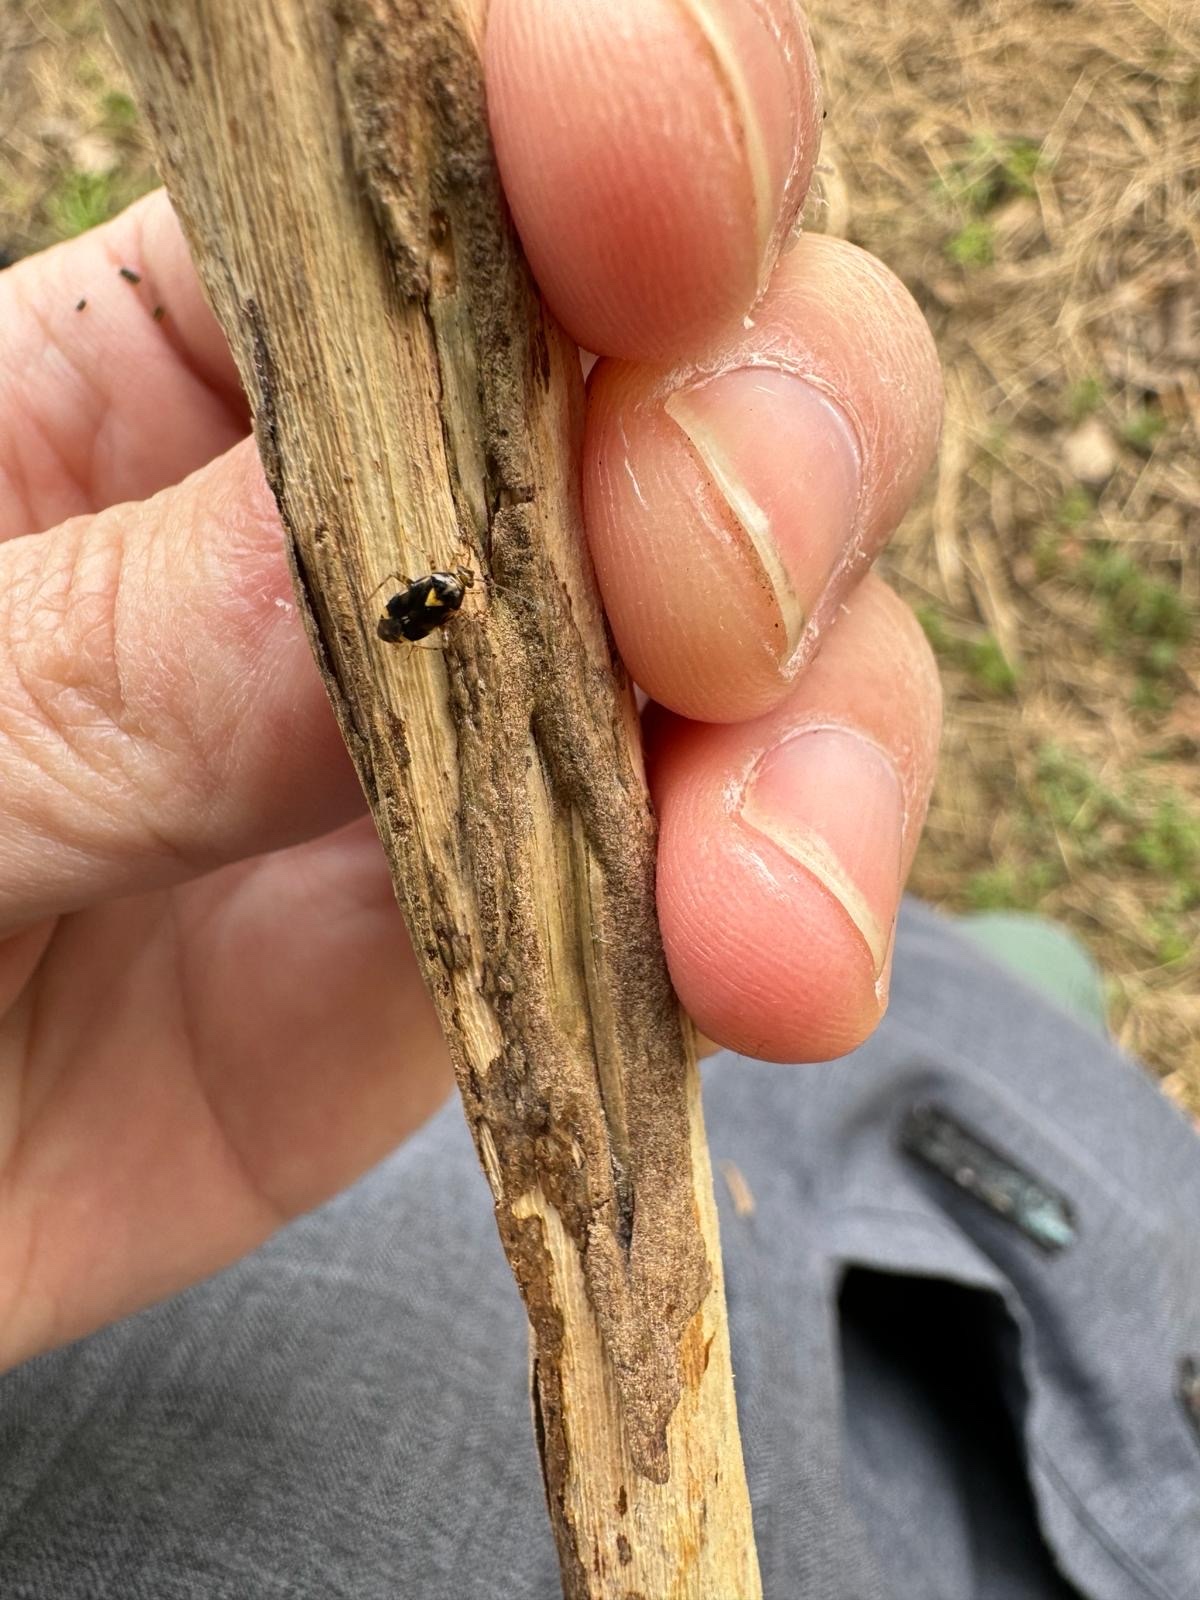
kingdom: Animalia
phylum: Arthropoda
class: Insecta
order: Hemiptera
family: Miridae
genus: Liocoris
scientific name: Liocoris tripustulatus
